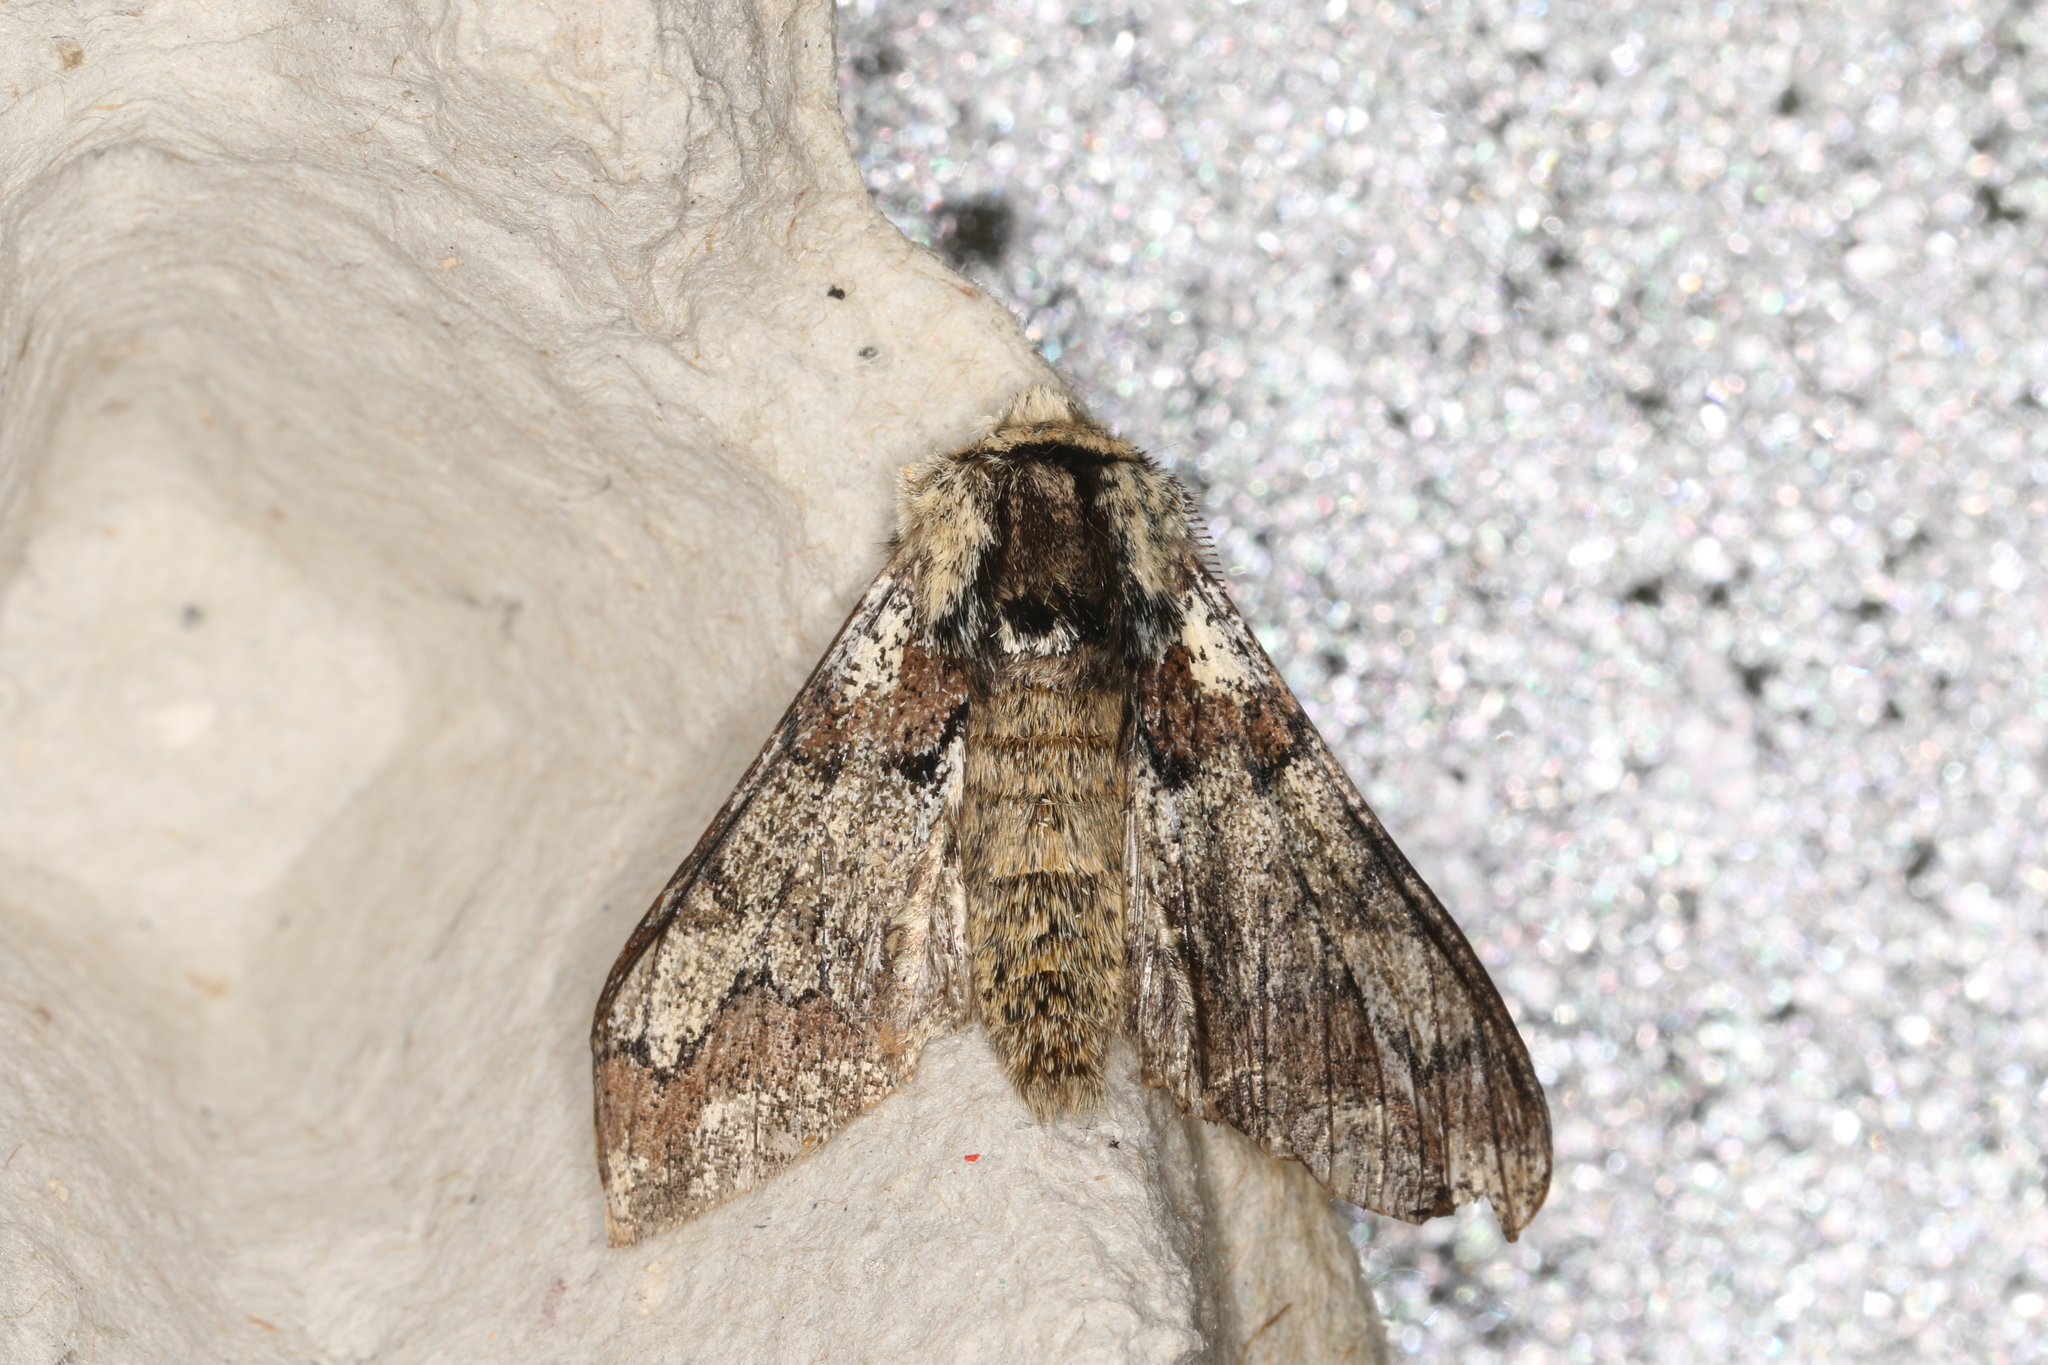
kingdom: Animalia
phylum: Arthropoda
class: Insecta
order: Lepidoptera
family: Geometridae
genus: Biston
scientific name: Biston strataria
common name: Oak beauty
